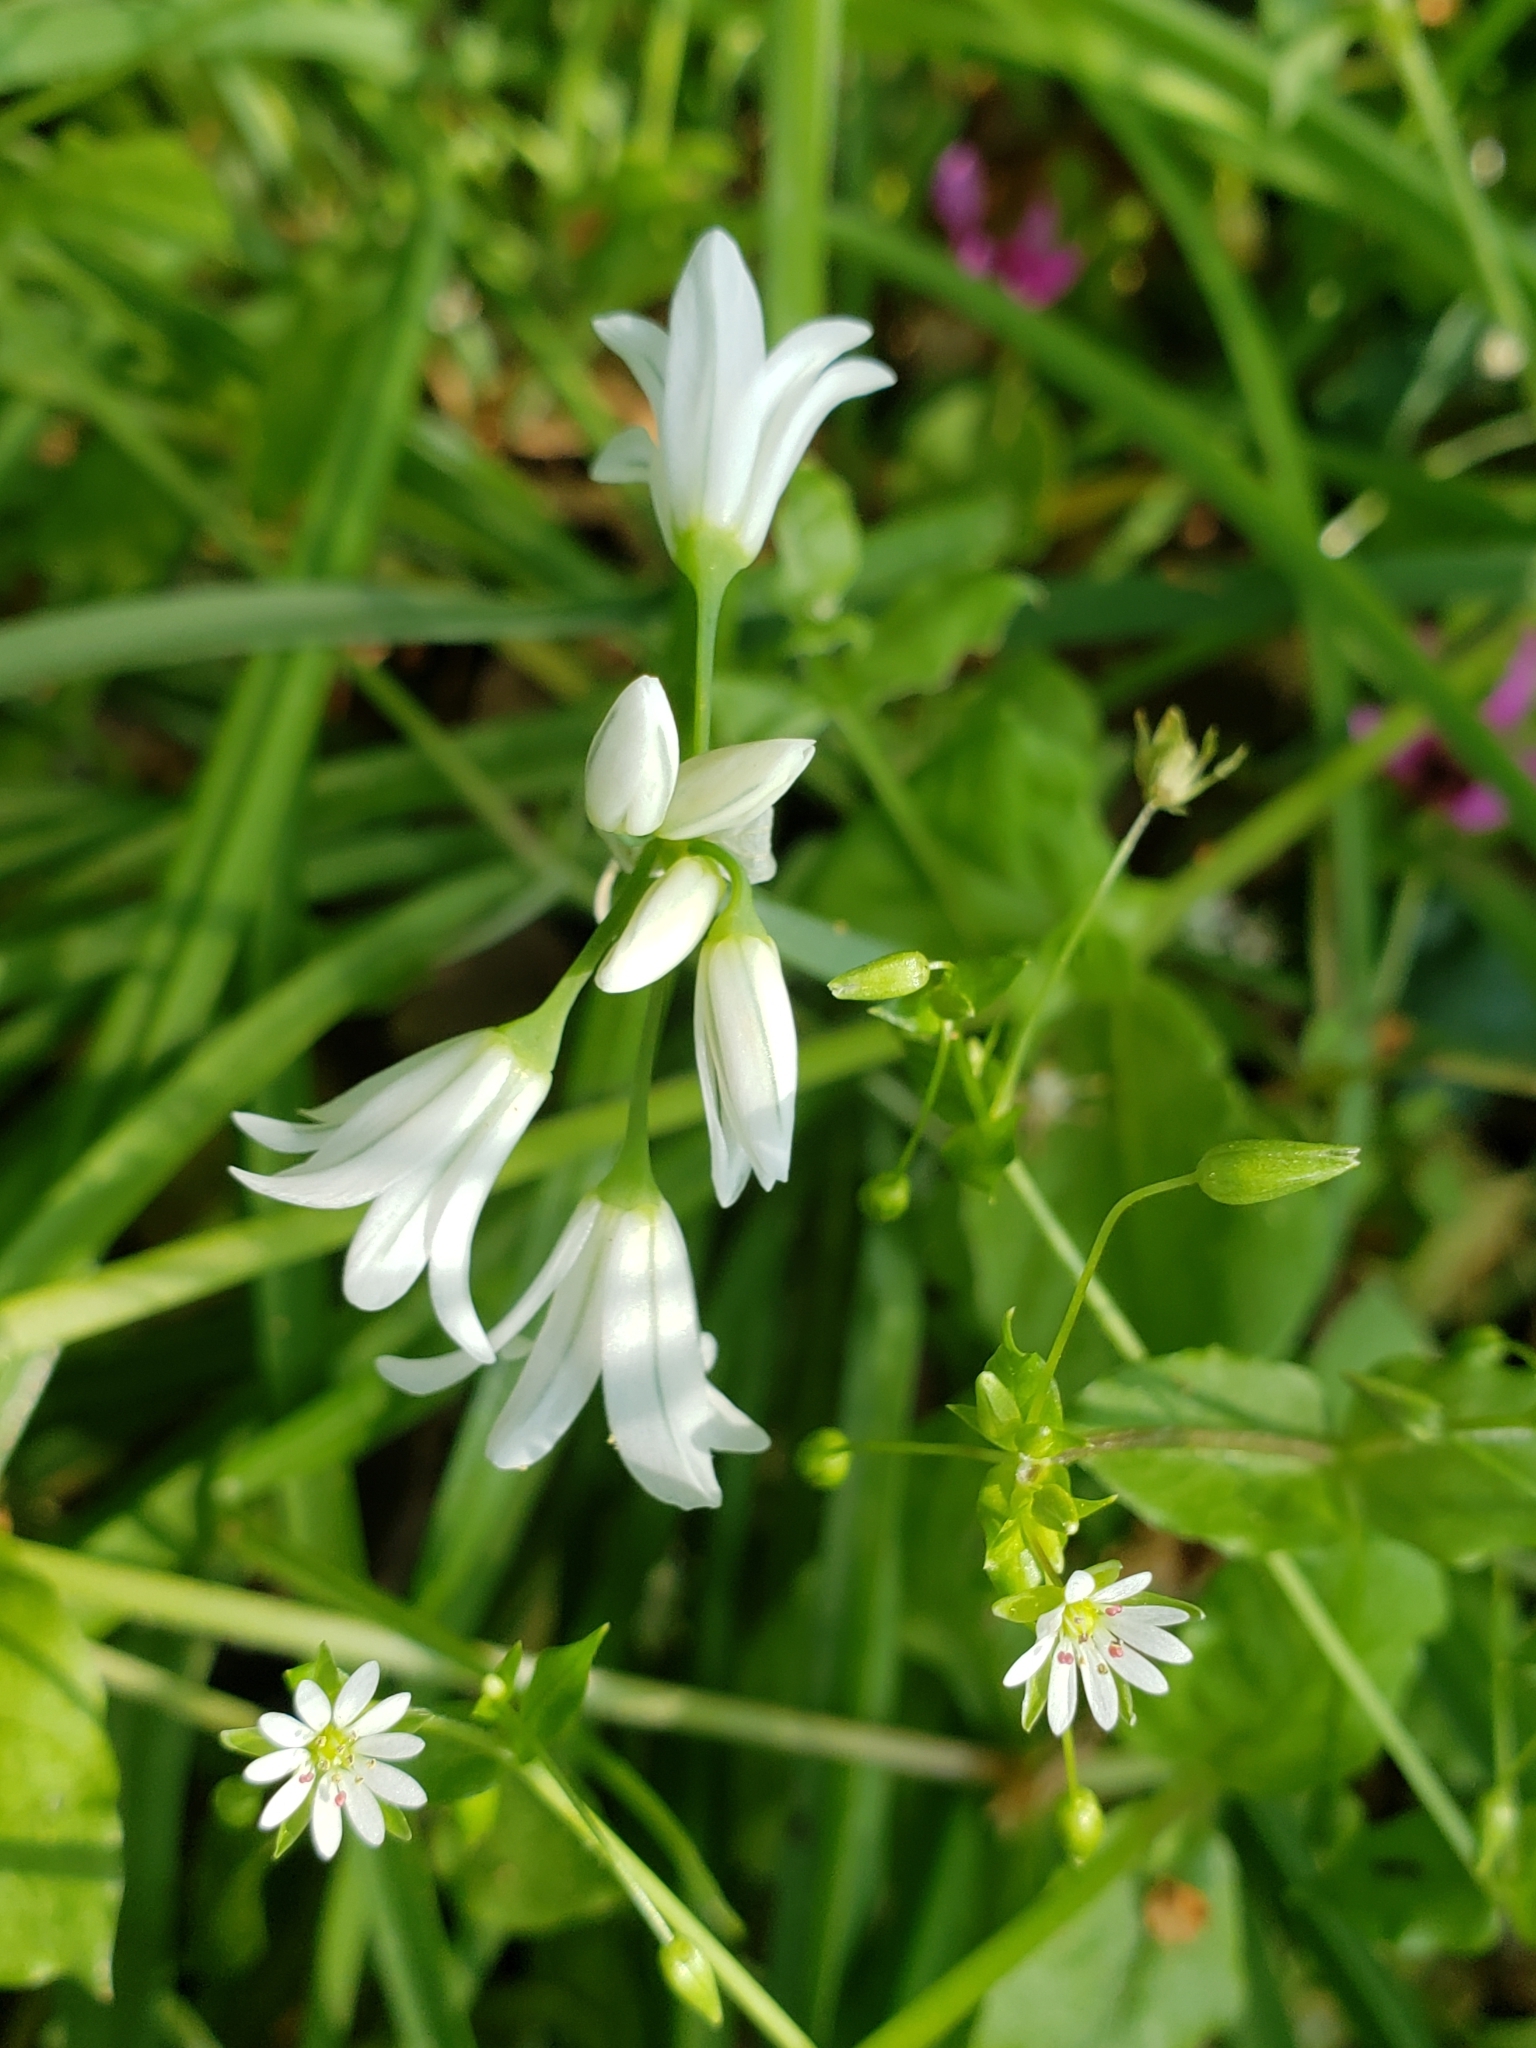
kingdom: Plantae
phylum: Tracheophyta
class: Liliopsida
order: Asparagales
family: Amaryllidaceae
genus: Allium
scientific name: Allium triquetrum
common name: Three-cornered garlic
